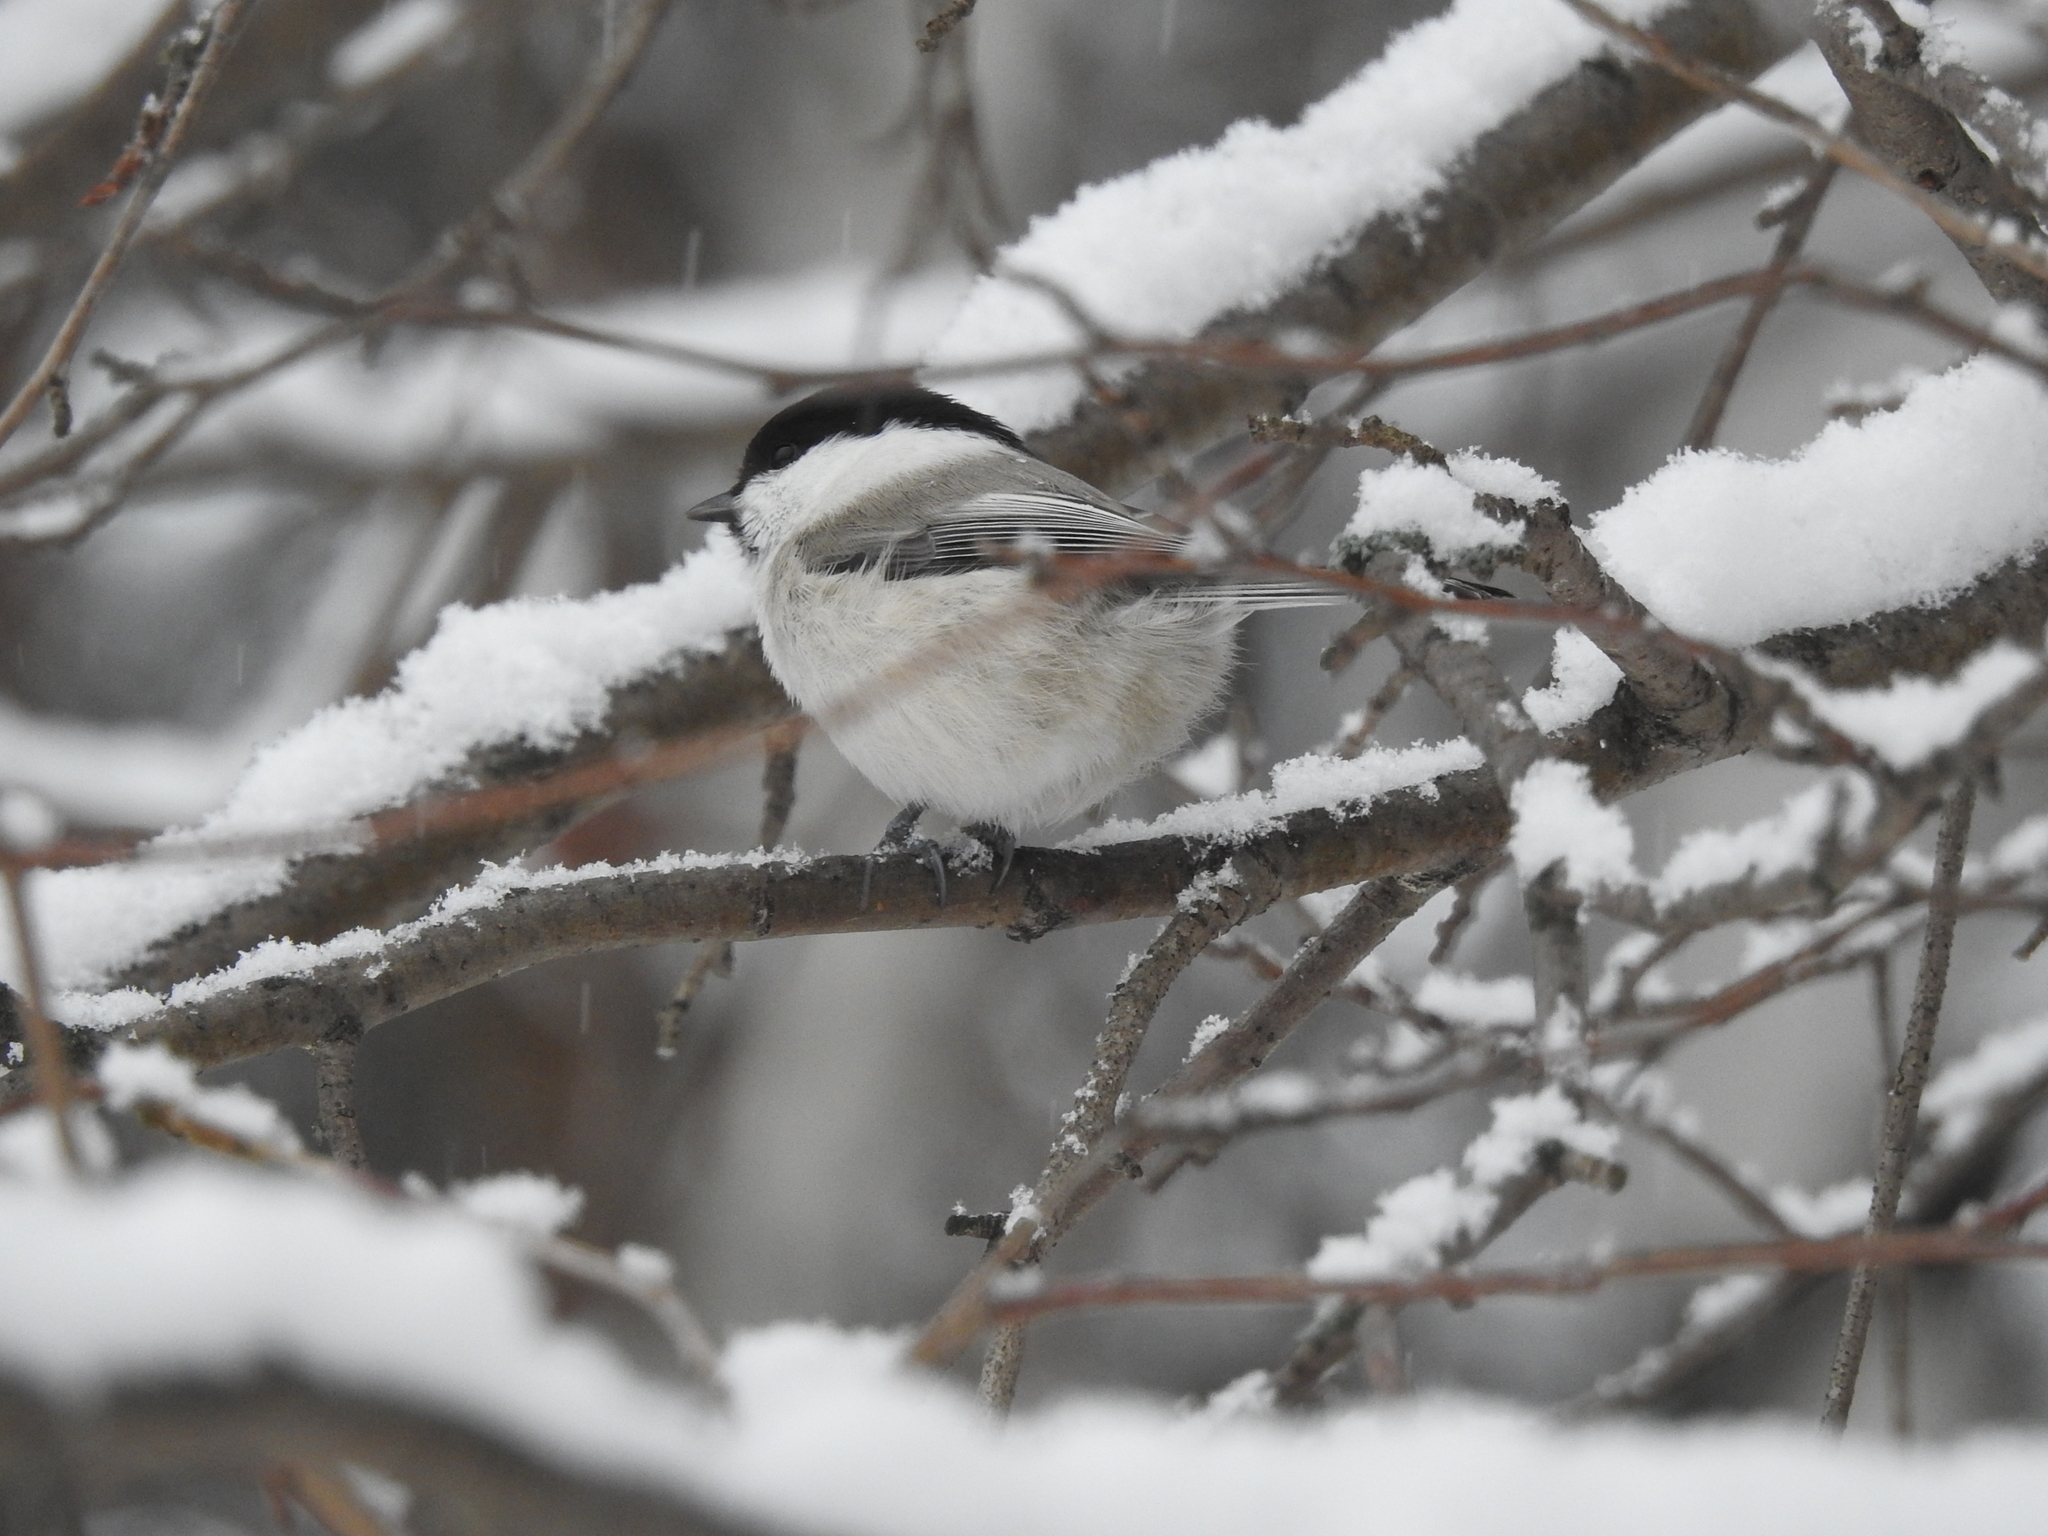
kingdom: Animalia
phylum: Chordata
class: Aves
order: Passeriformes
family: Paridae
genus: Poecile
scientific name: Poecile montanus
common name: Willow tit
